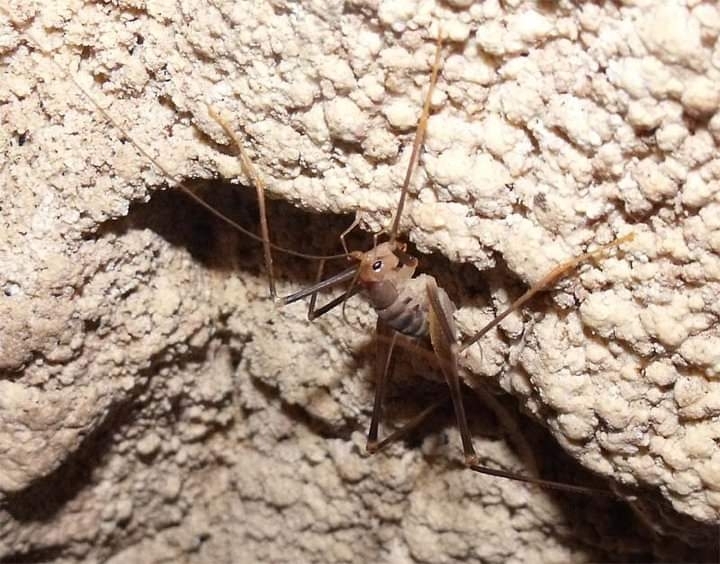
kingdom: Animalia
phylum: Arthropoda
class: Insecta
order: Orthoptera
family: Rhaphidophoridae
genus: Dolichopoda
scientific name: Dolichopoda geniculata
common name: Bended cave-cricket
